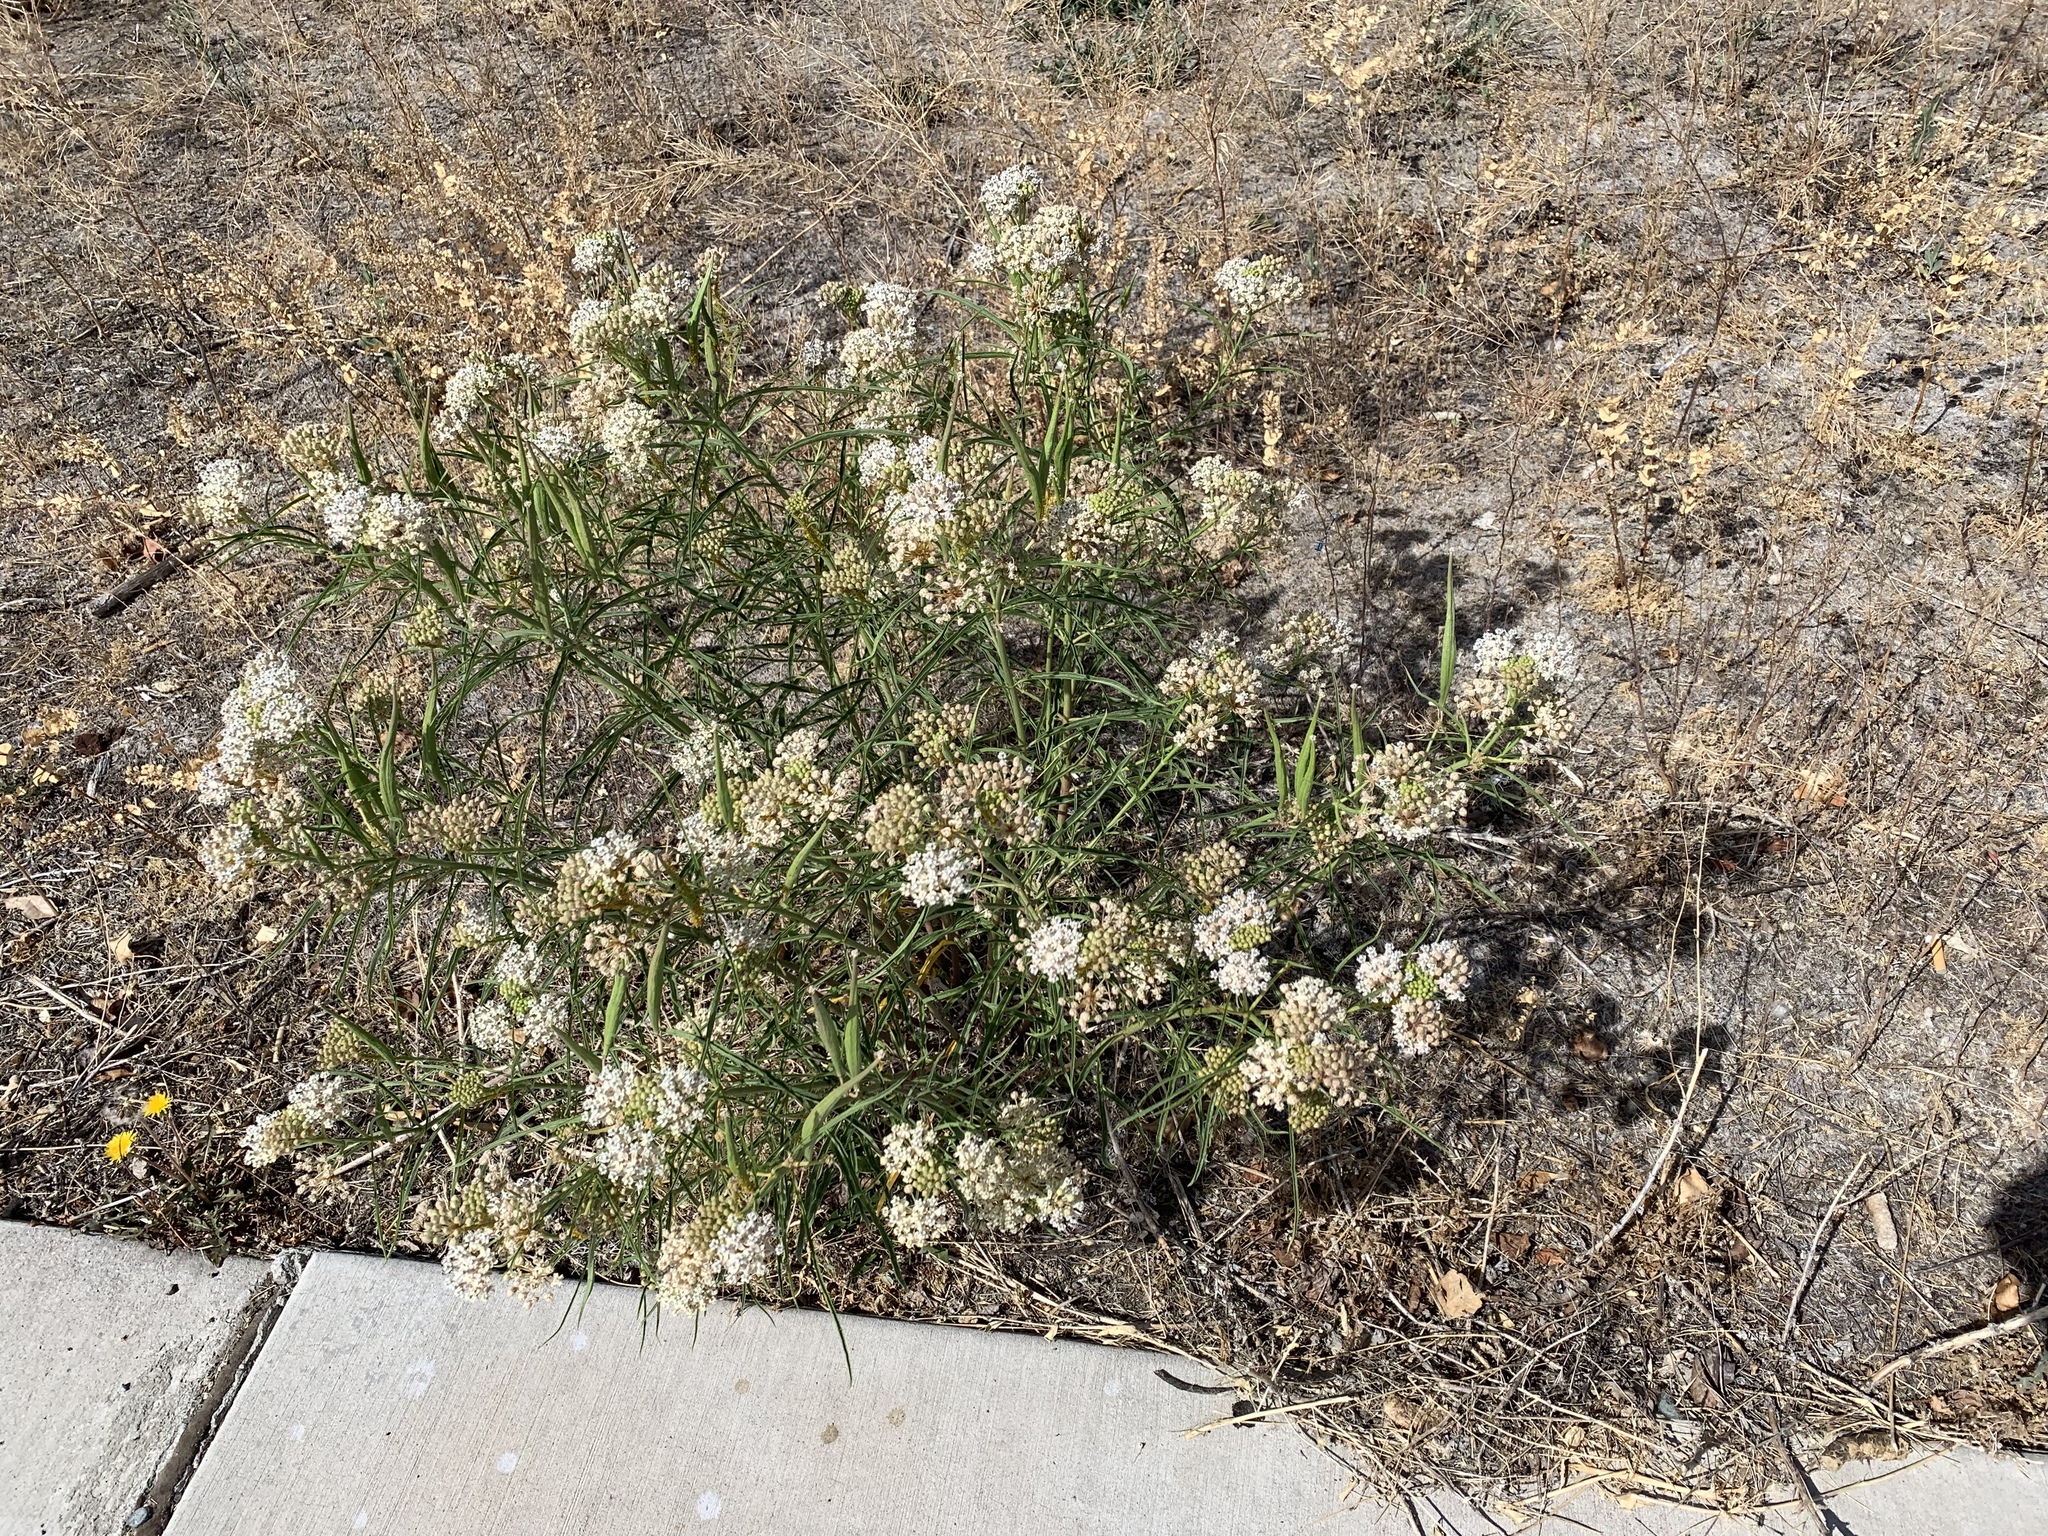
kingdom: Plantae
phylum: Tracheophyta
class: Magnoliopsida
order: Gentianales
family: Apocynaceae
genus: Asclepias
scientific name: Asclepias fascicularis
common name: Mexican milkweed
